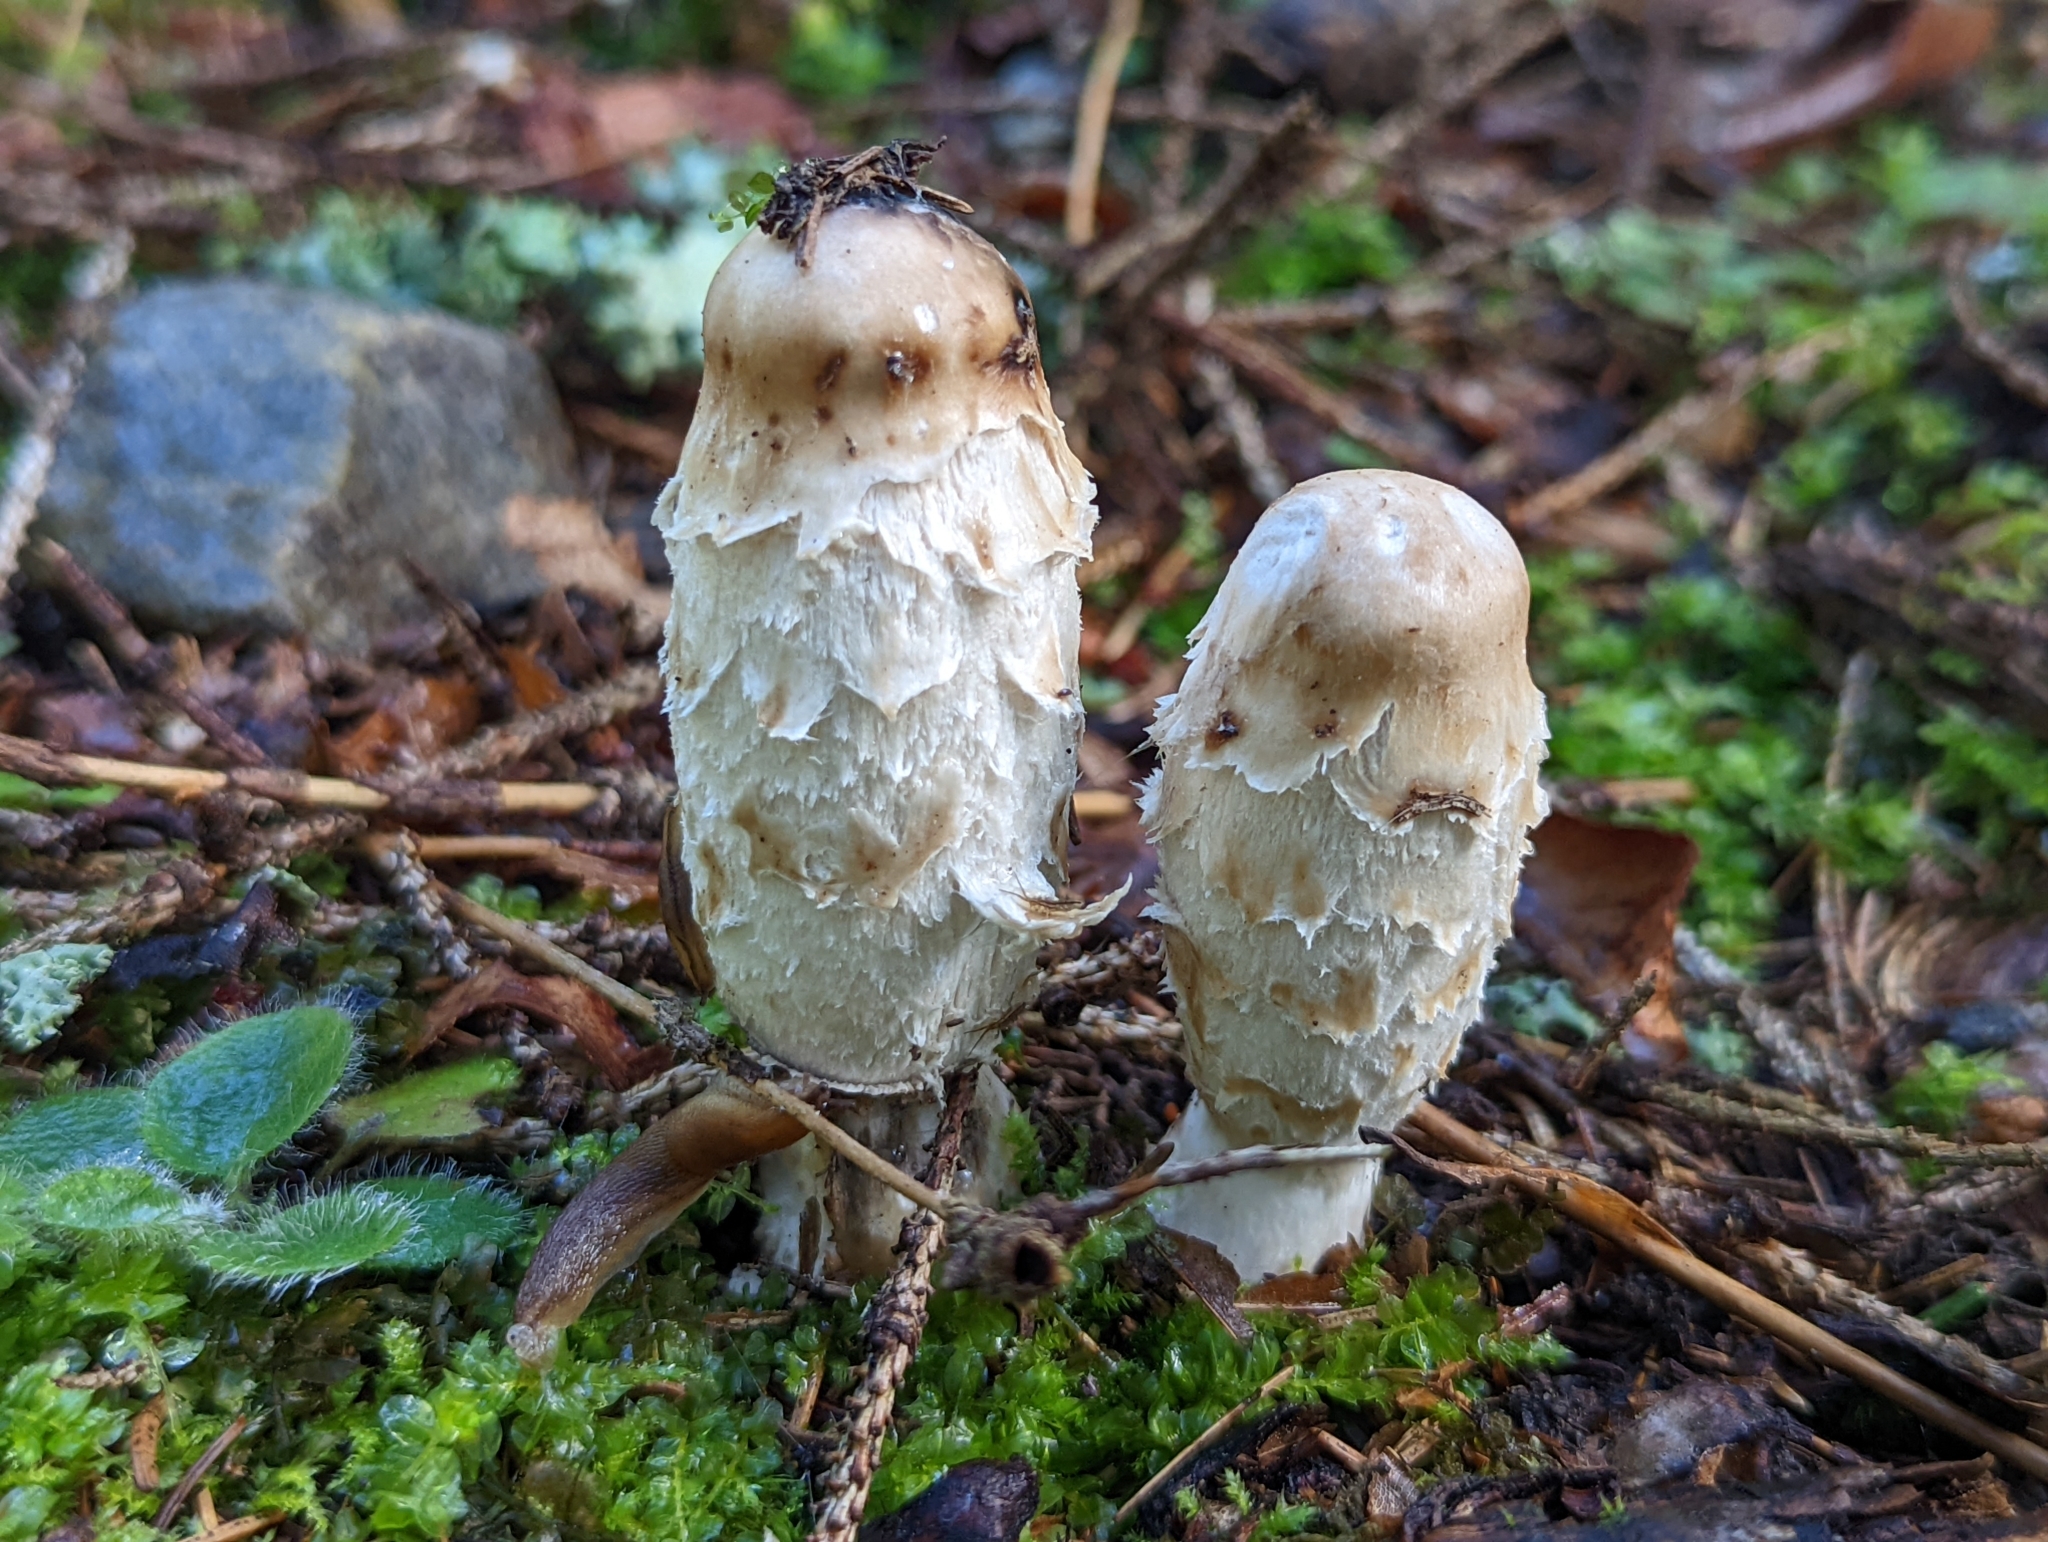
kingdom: Fungi
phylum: Basidiomycota
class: Agaricomycetes
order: Agaricales
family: Agaricaceae
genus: Coprinus
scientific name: Coprinus comatus
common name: Lawyer's wig
